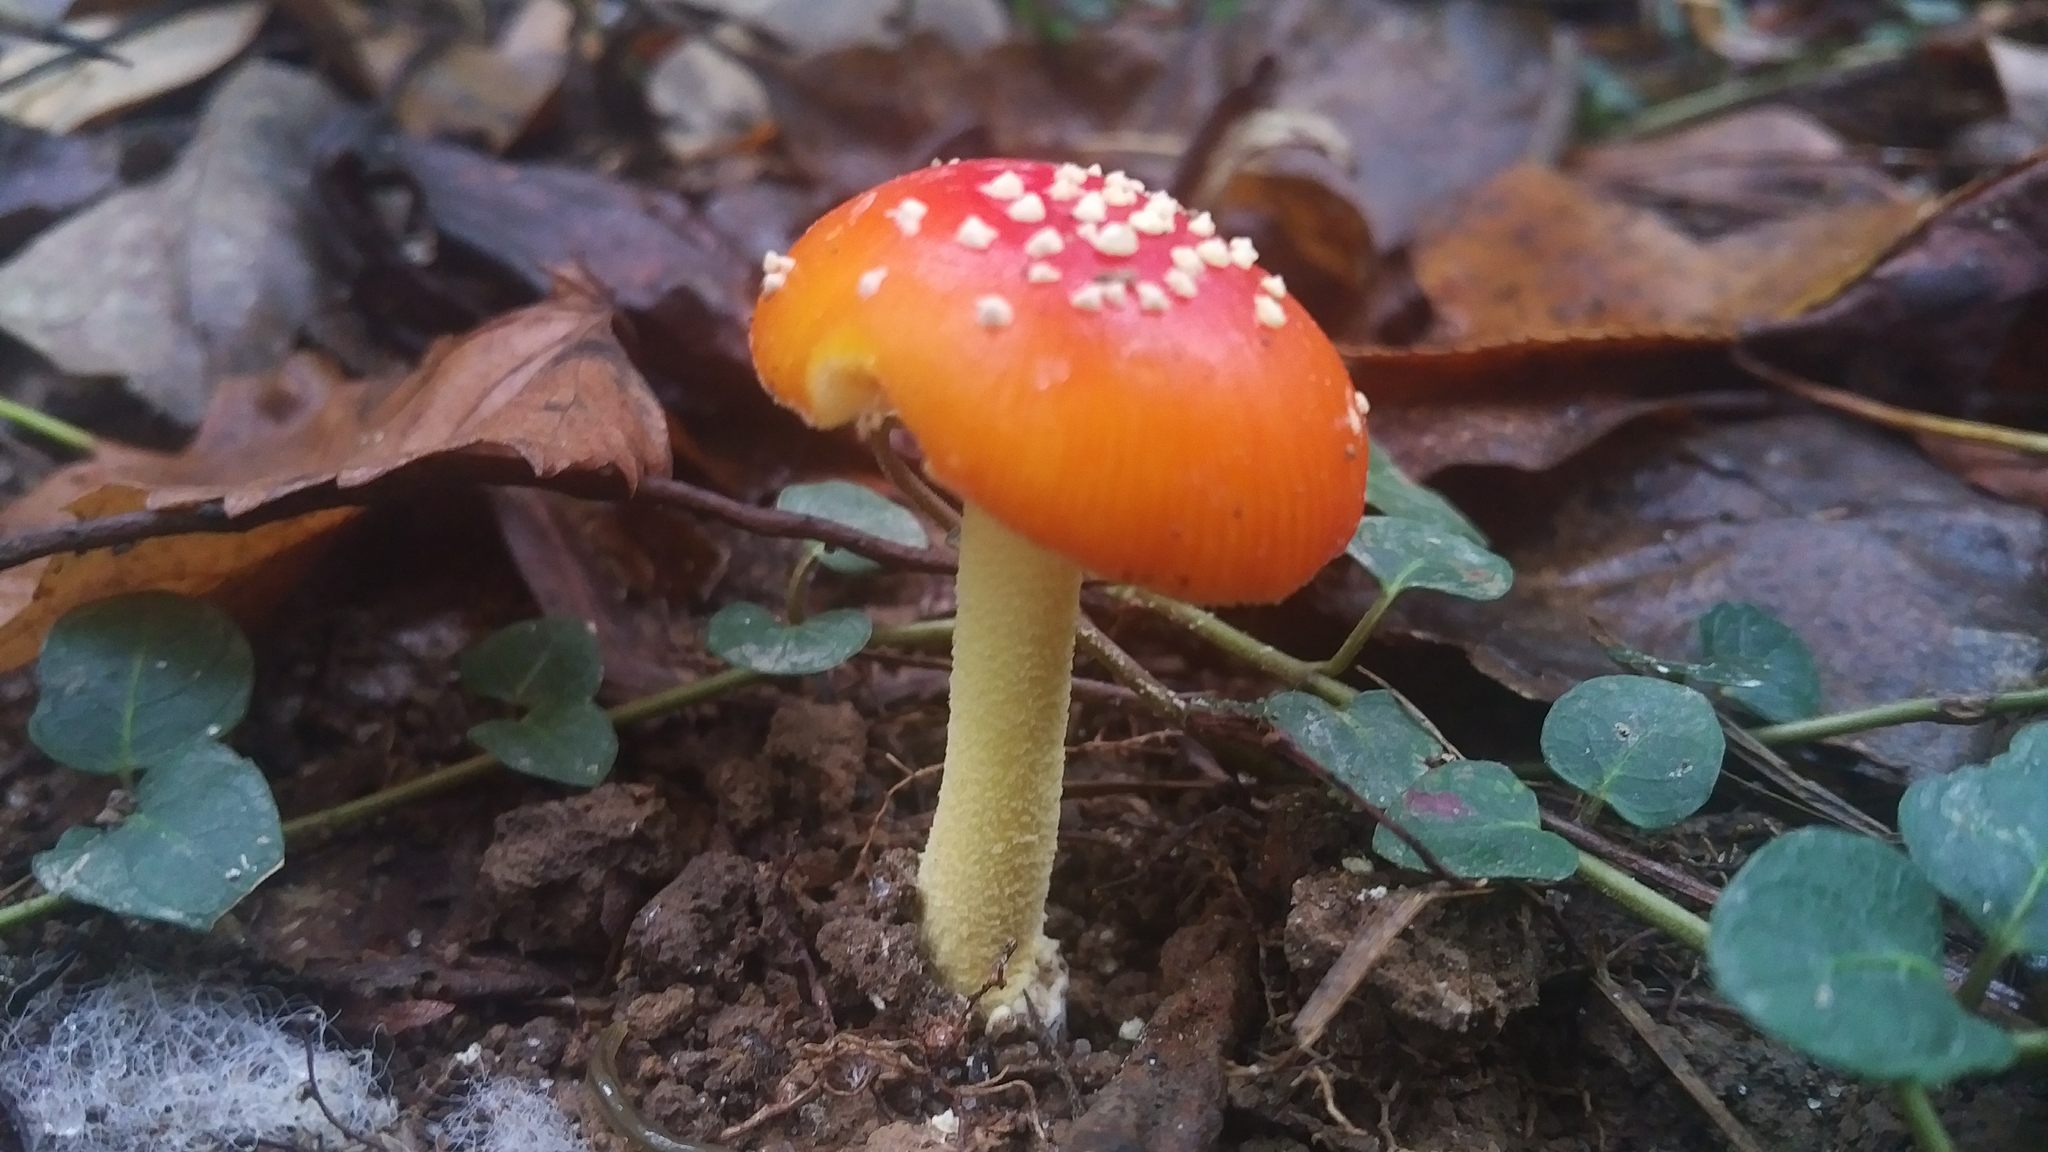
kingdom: Fungi
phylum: Basidiomycota
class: Agaricomycetes
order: Agaricales
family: Amanitaceae
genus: Amanita
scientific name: Amanita parcivolvata
